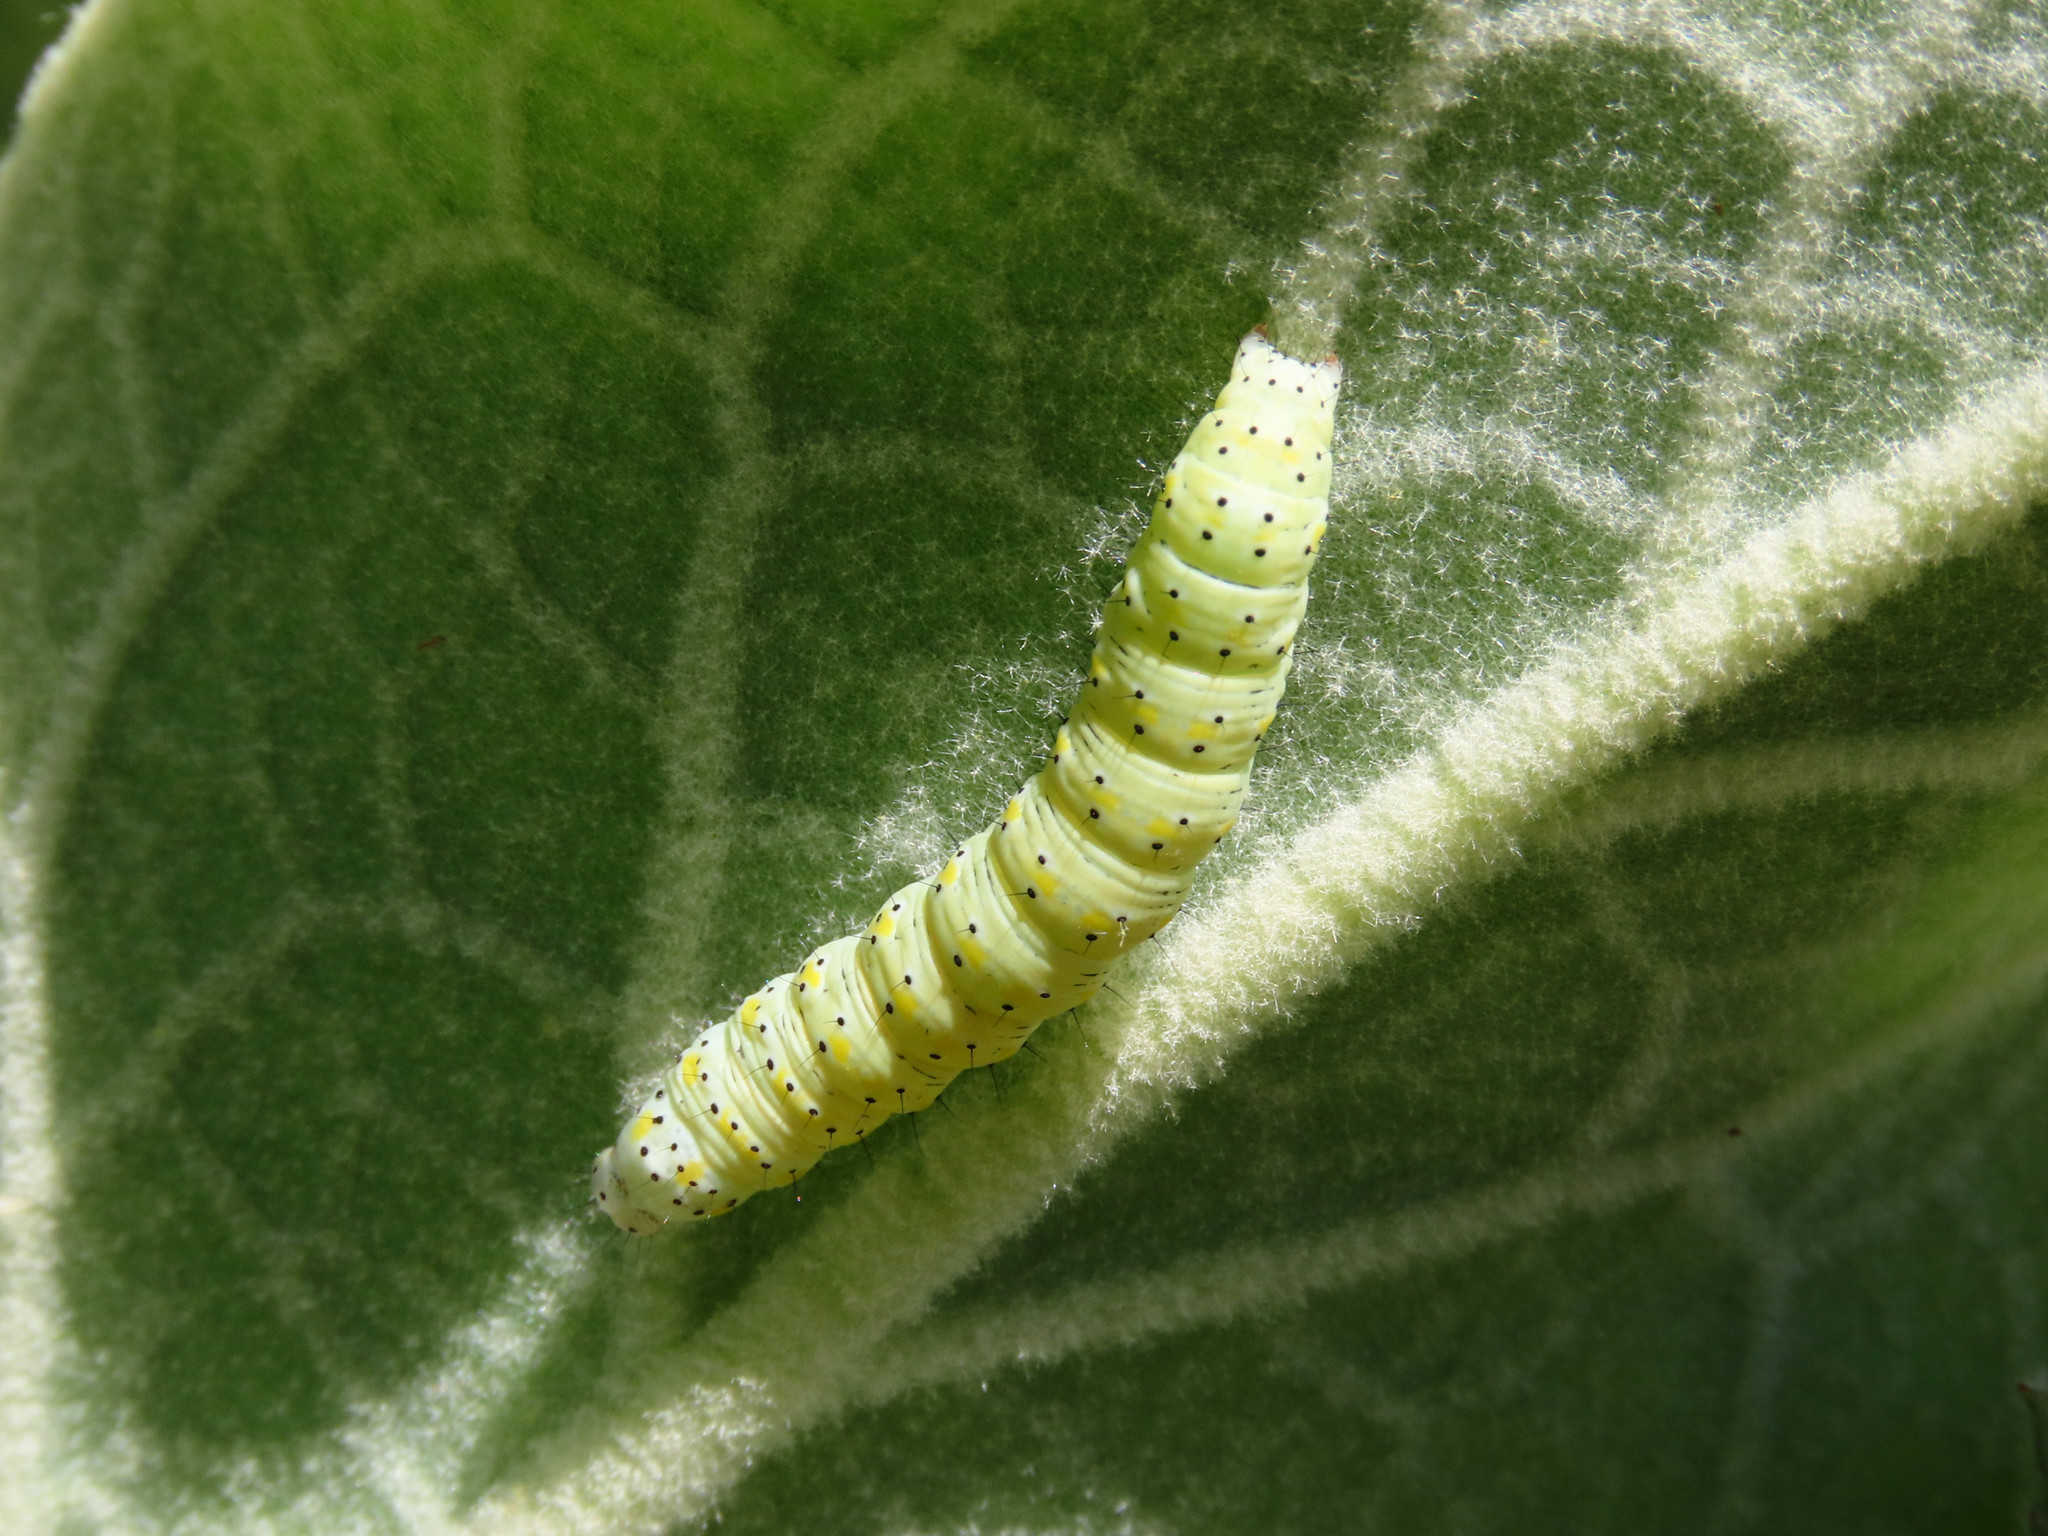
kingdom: Animalia
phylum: Arthropoda
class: Insecta
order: Lepidoptera
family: Noctuidae
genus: Cucullia
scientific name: Cucullia verbasci
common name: Mullein
